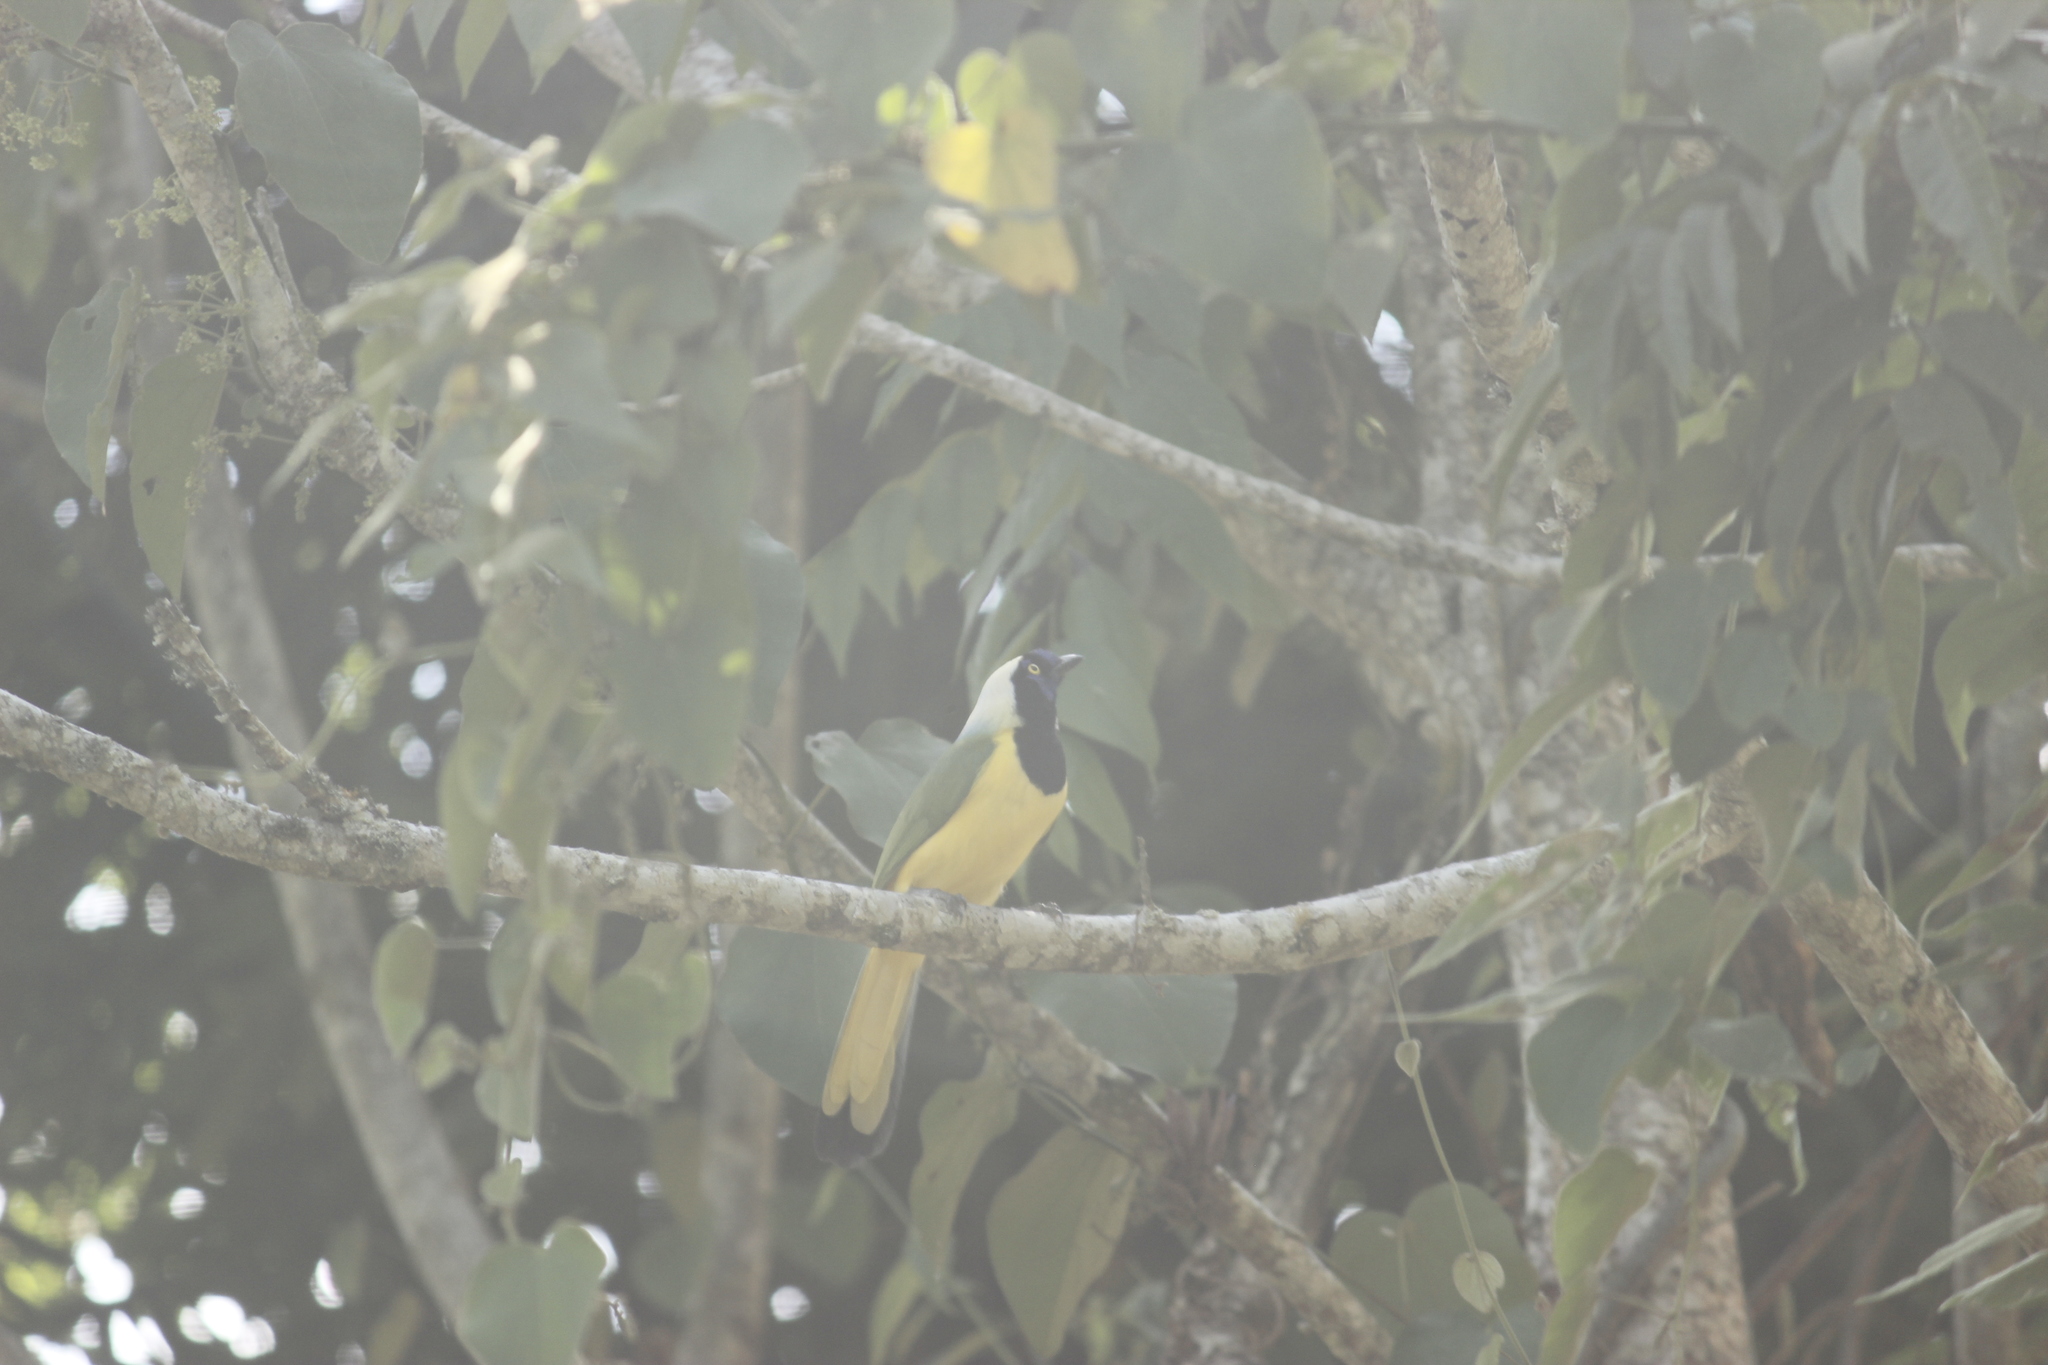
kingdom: Animalia
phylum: Chordata
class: Aves
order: Passeriformes
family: Corvidae
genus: Cyanocorax
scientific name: Cyanocorax yncas
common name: Green jay
